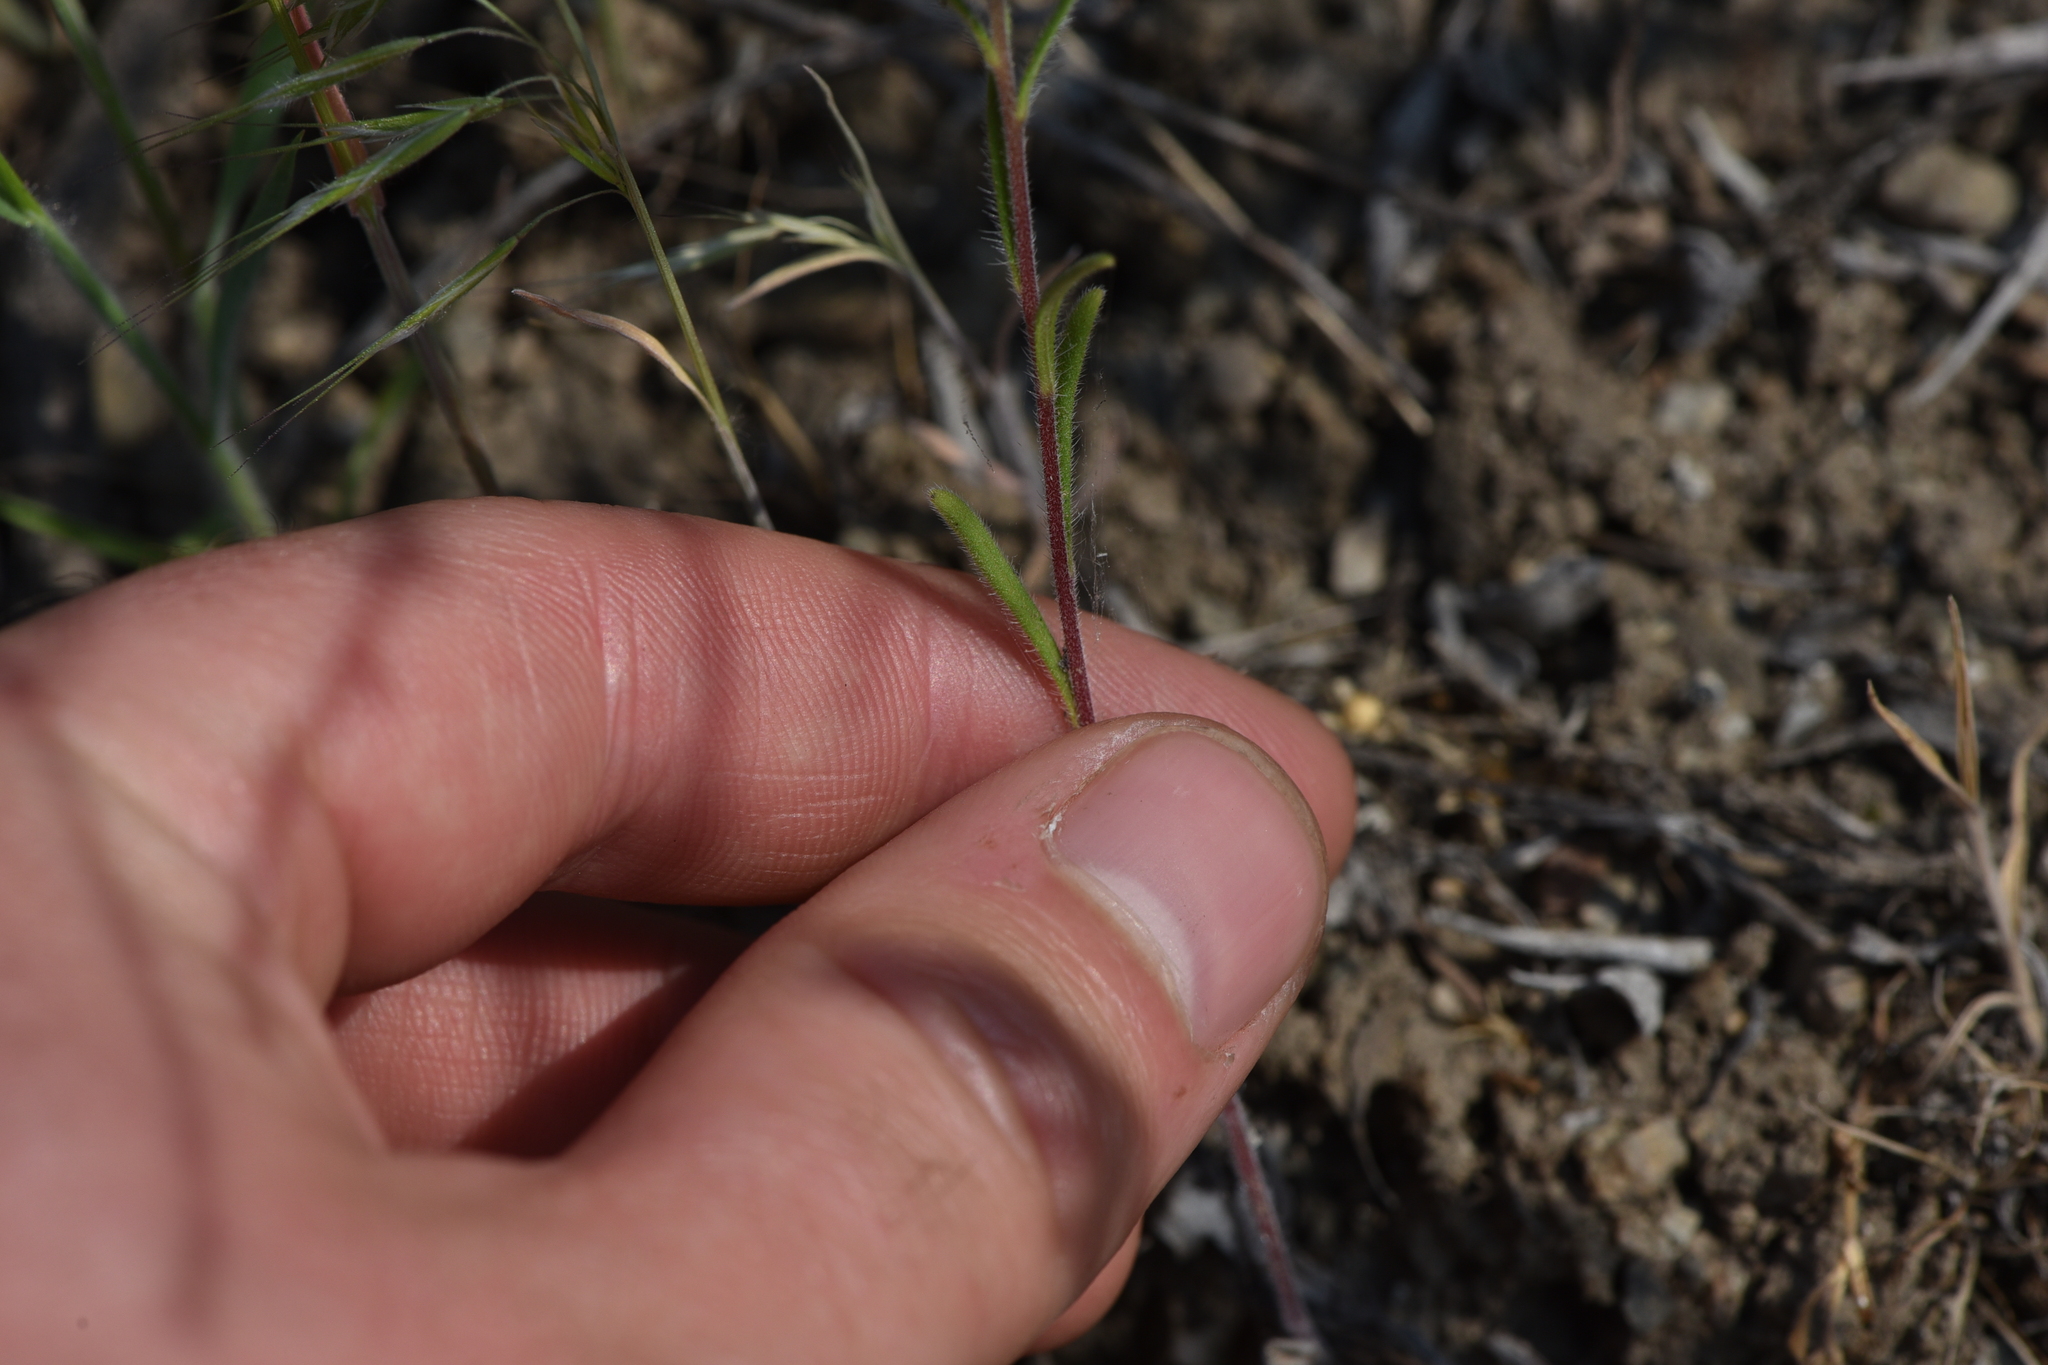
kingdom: Plantae
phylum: Tracheophyta
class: Magnoliopsida
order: Boraginales
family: Hydrophyllaceae
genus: Phacelia
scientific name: Phacelia linearis
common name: Linear-leaved phacelia
